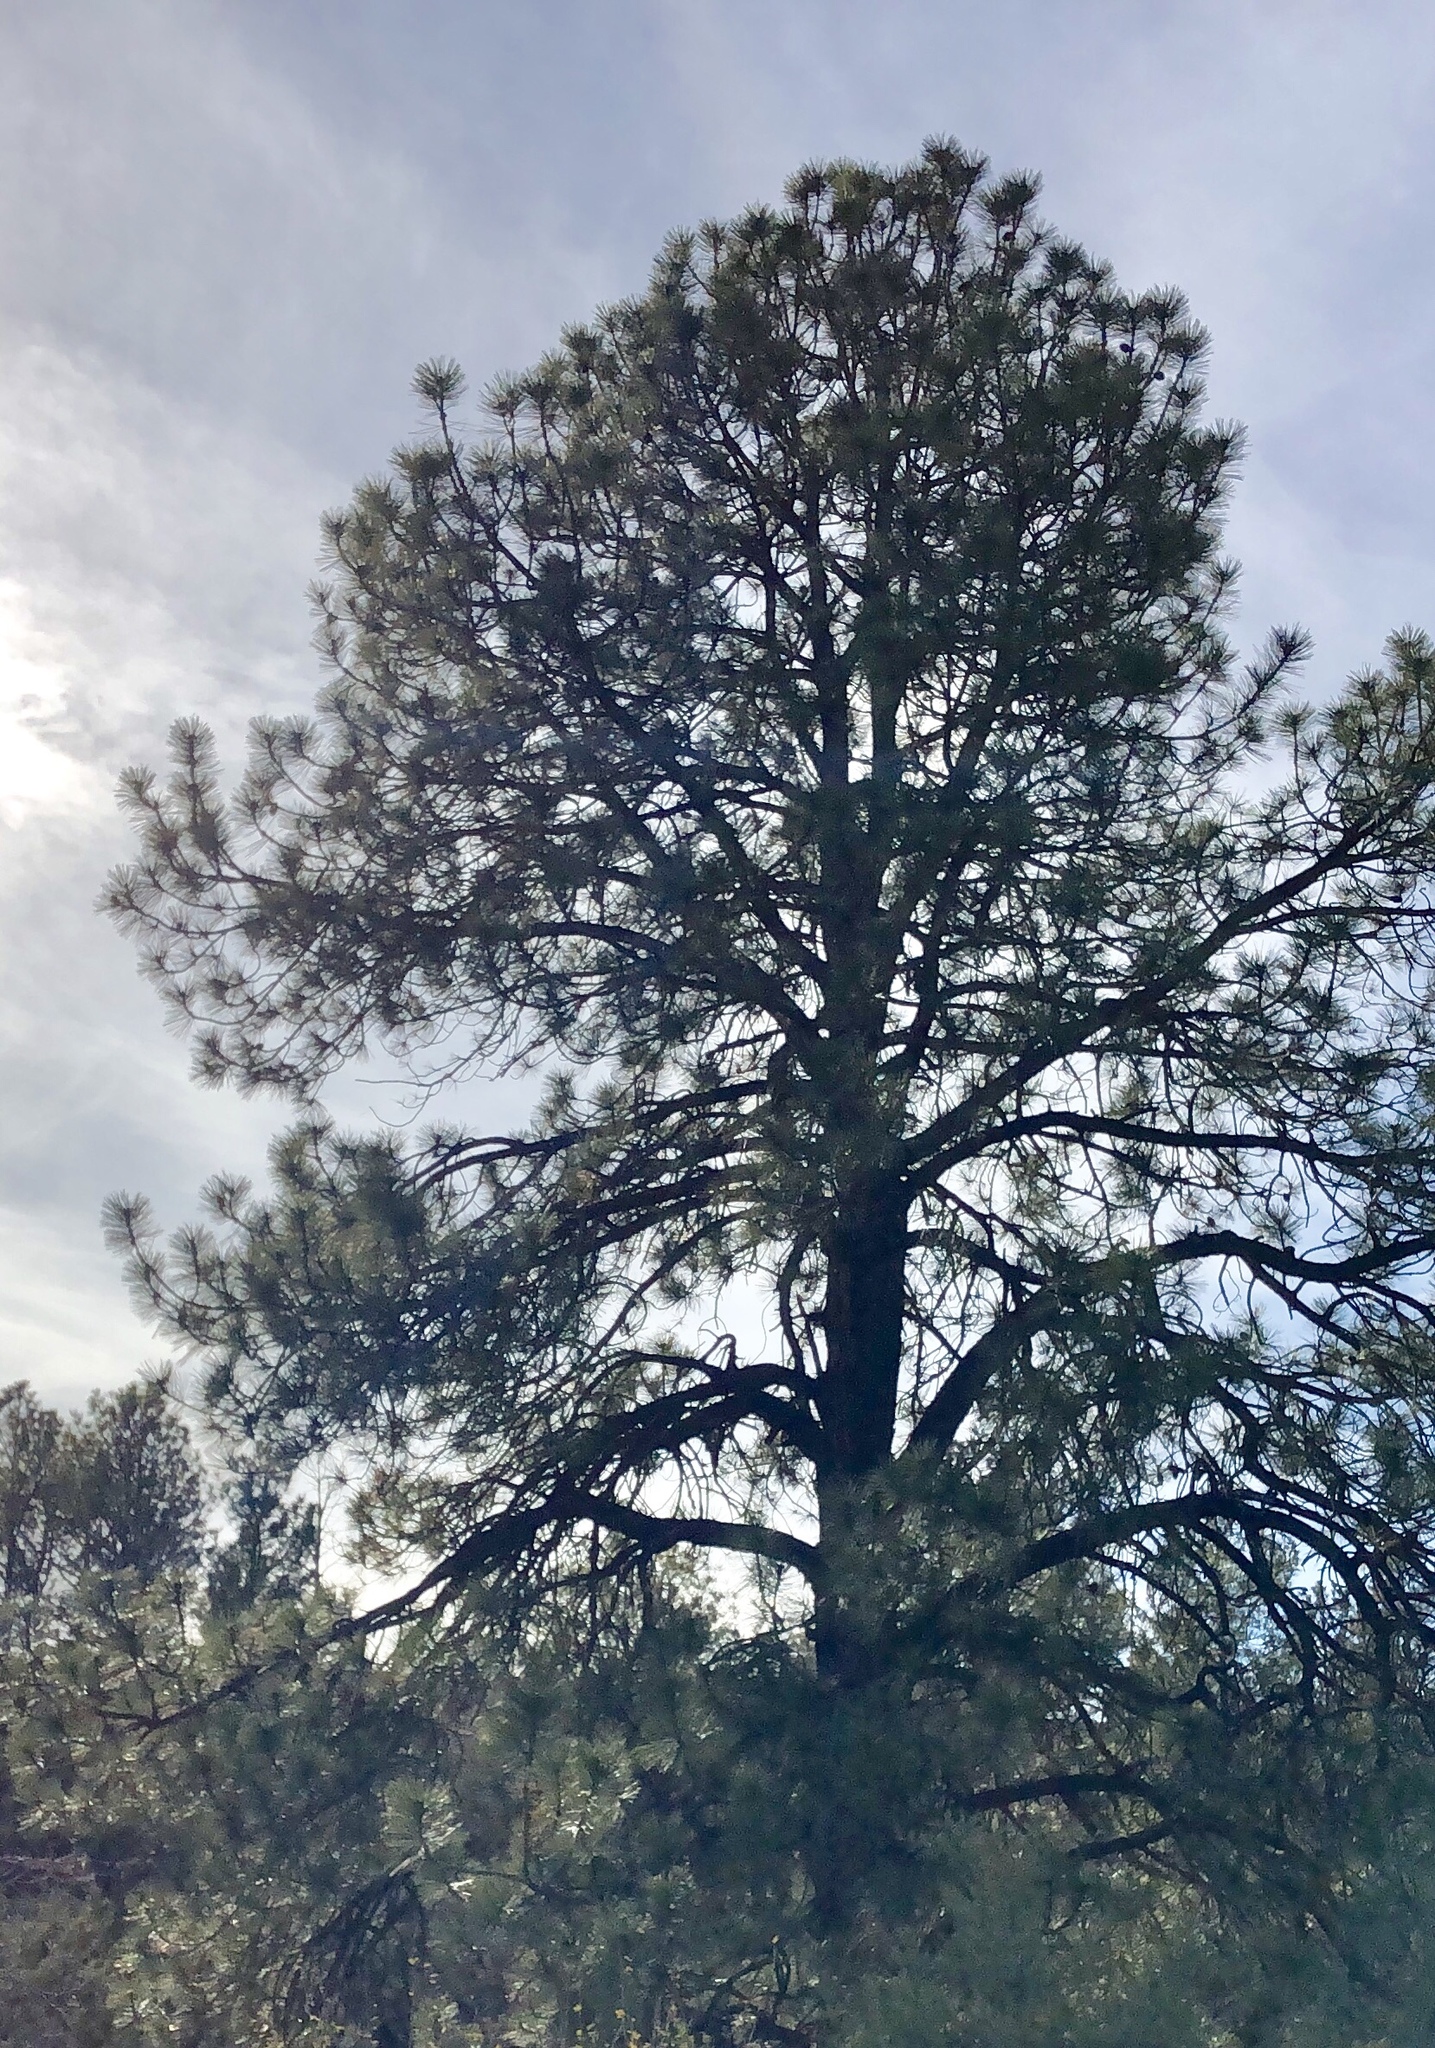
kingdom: Plantae
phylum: Tracheophyta
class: Pinopsida
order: Pinales
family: Pinaceae
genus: Pinus
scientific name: Pinus ponderosa
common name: Western yellow-pine
